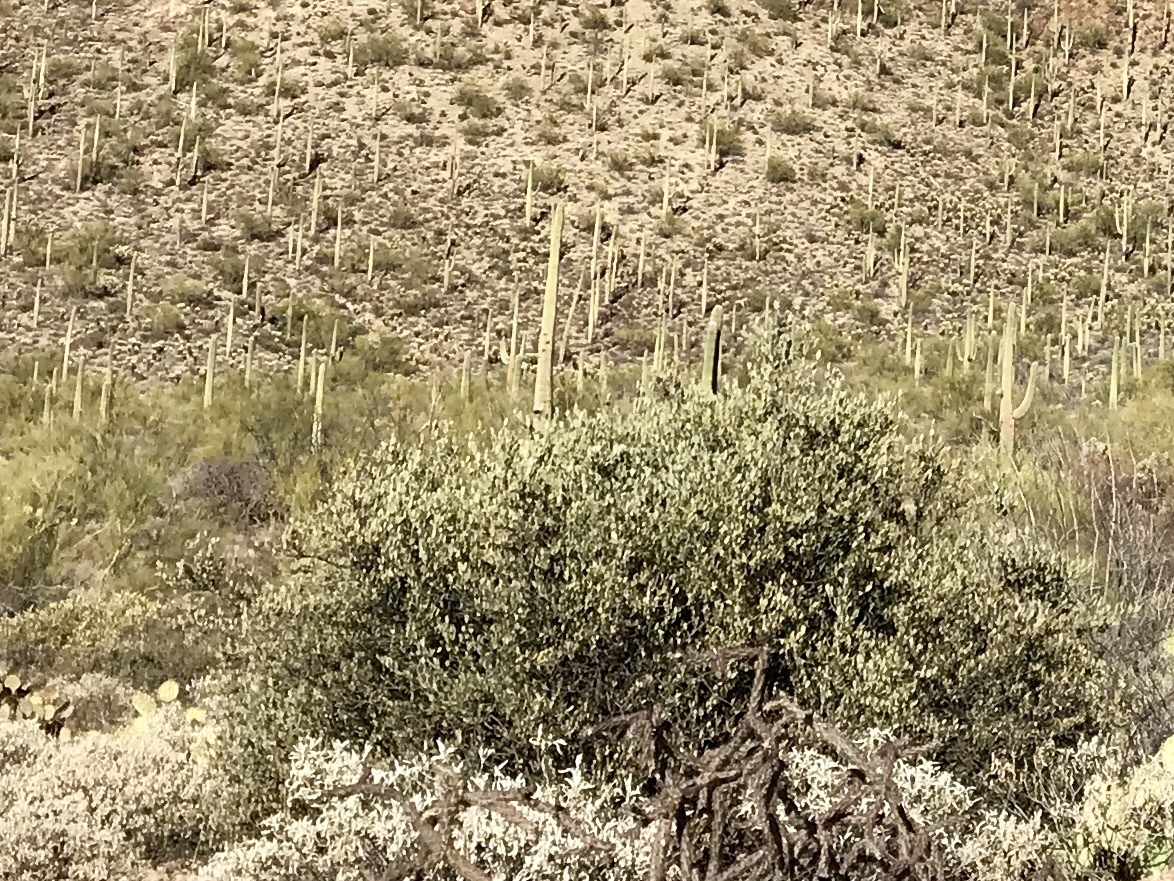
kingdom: Plantae
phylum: Tracheophyta
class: Magnoliopsida
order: Caryophyllales
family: Simmondsiaceae
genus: Simmondsia
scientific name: Simmondsia chinensis
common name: Jojoba
